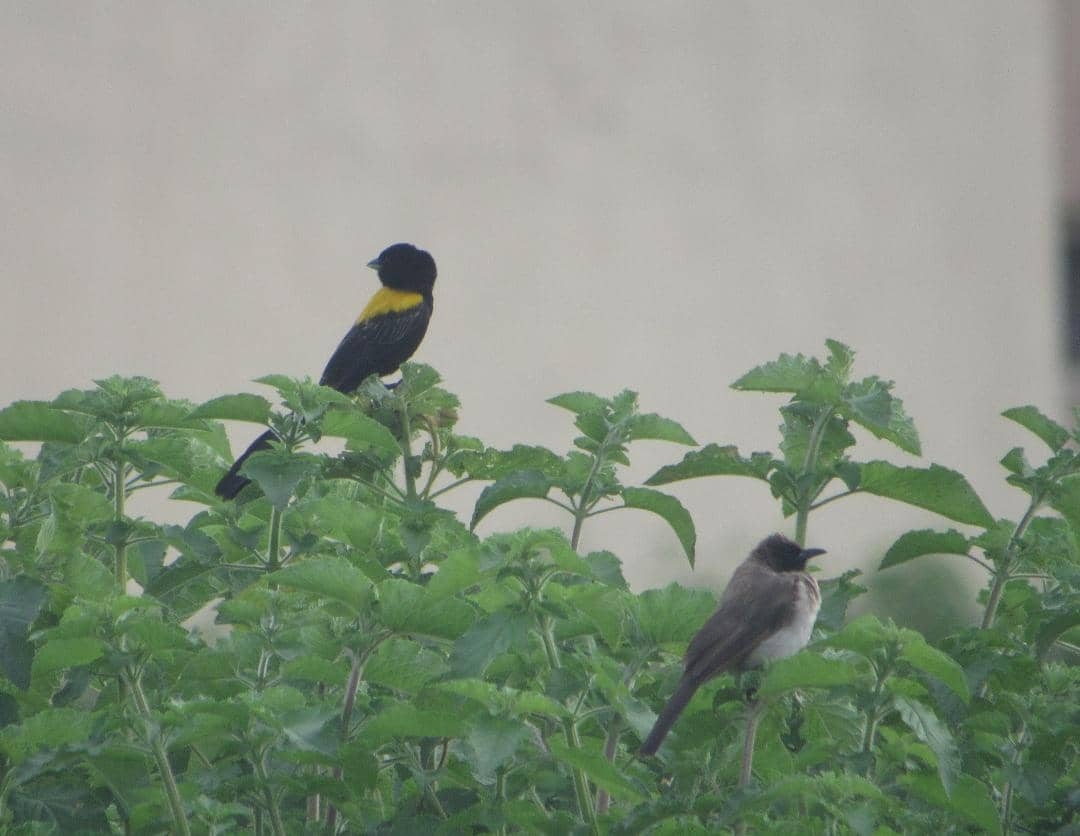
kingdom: Animalia
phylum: Chordata
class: Aves
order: Passeriformes
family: Ploceidae
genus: Euplectes
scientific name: Euplectes macroura
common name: Yellow-mantled widowbird
